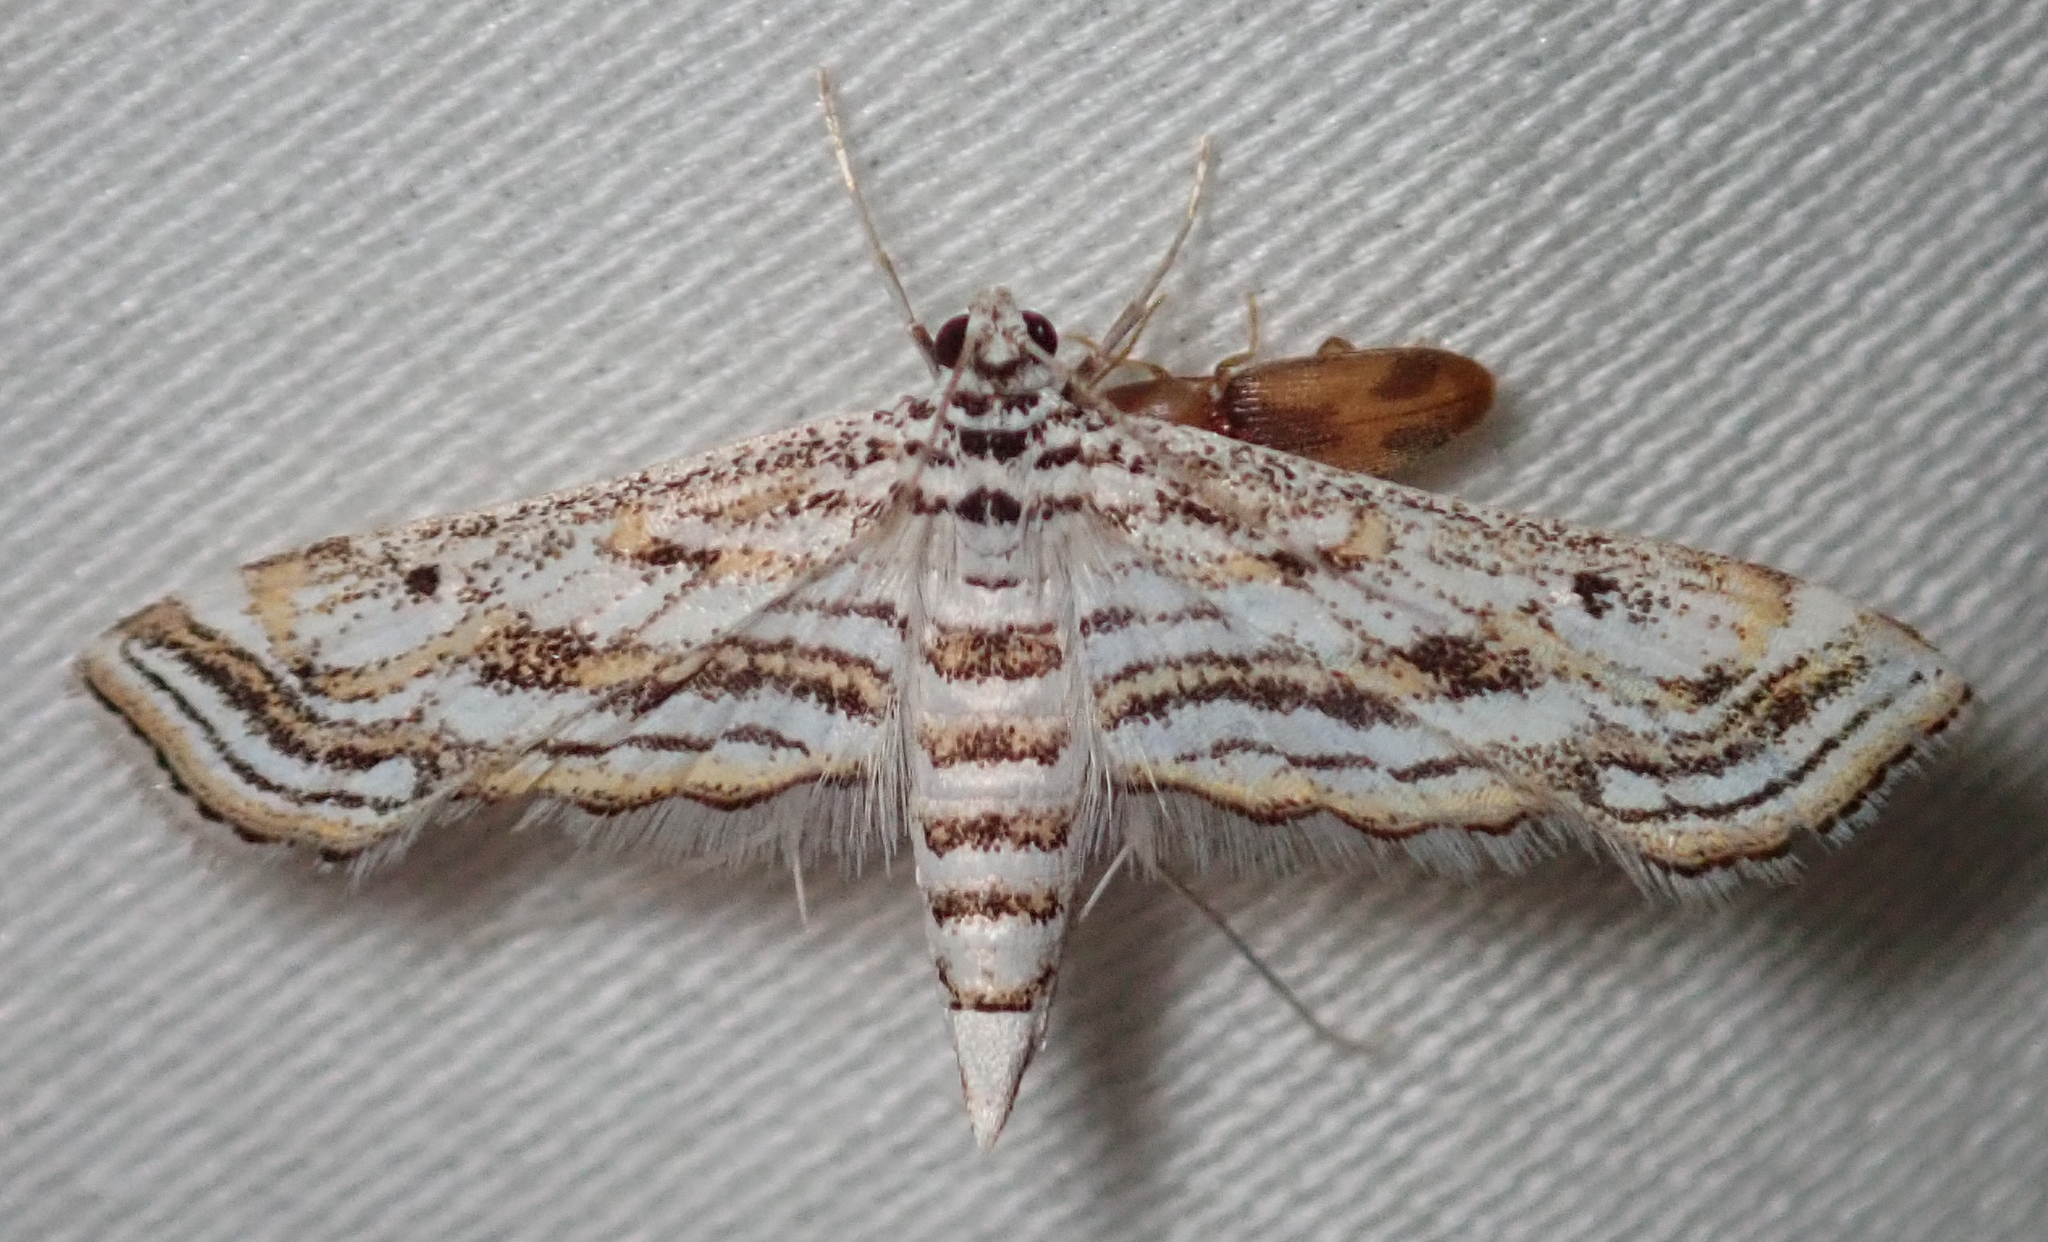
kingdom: Animalia
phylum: Arthropoda
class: Insecta
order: Lepidoptera
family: Crambidae
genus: Parapoynx
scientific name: Parapoynx fluctuosalis
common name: Moth
